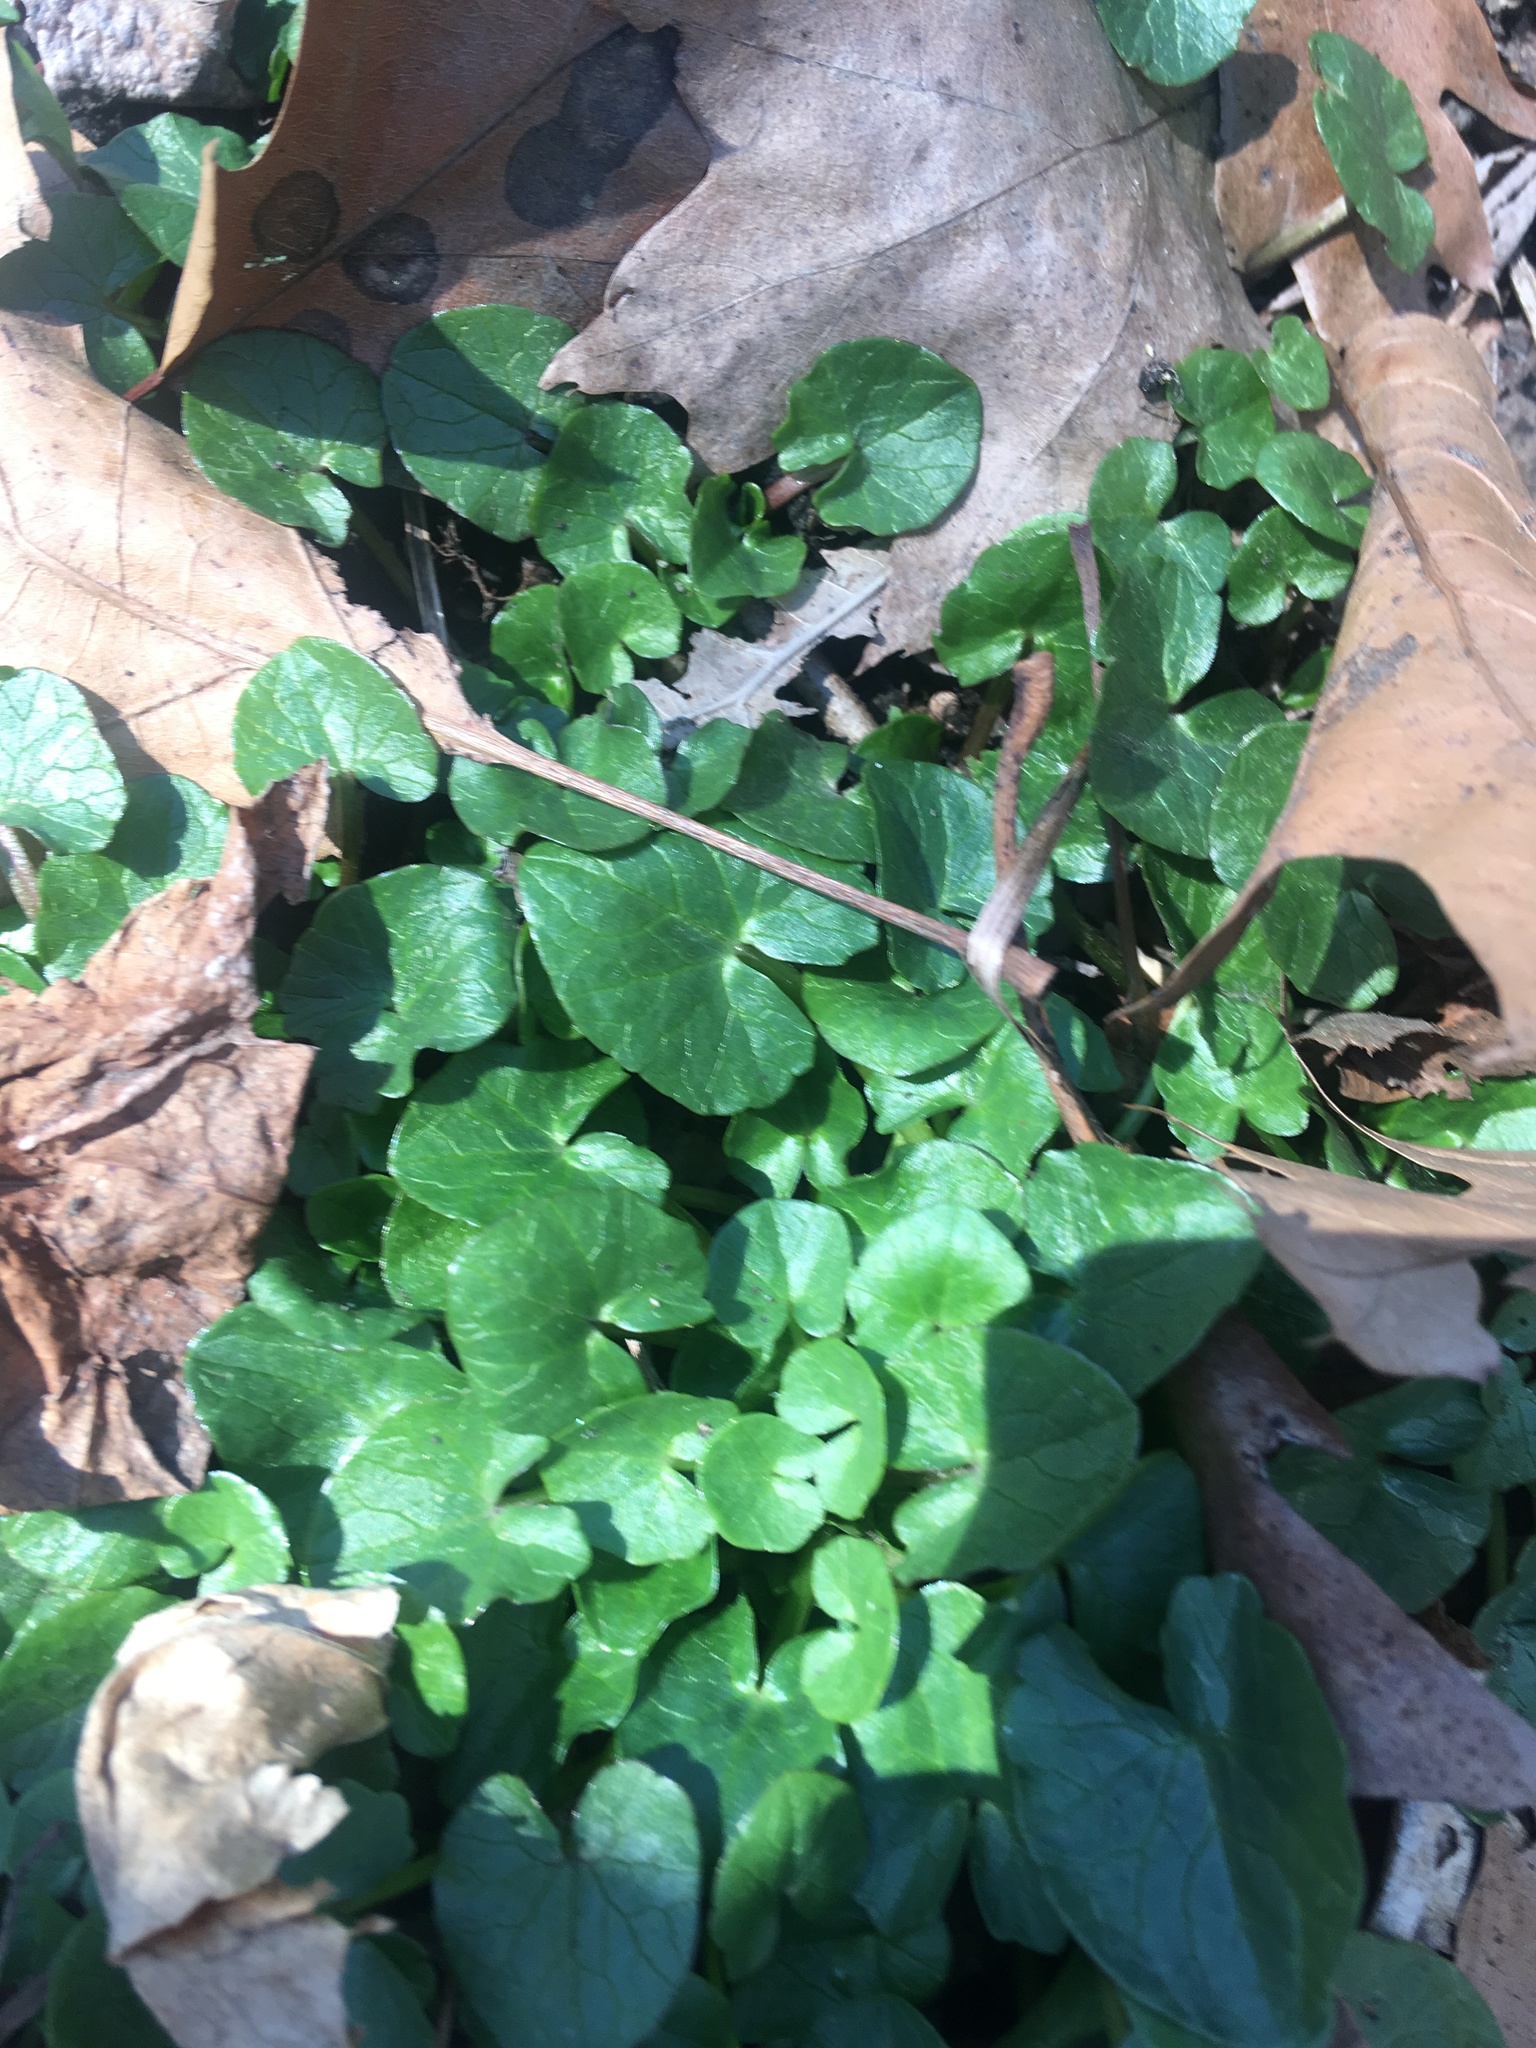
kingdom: Plantae
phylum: Tracheophyta
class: Magnoliopsida
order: Ranunculales
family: Ranunculaceae
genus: Ficaria
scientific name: Ficaria verna
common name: Lesser celandine
